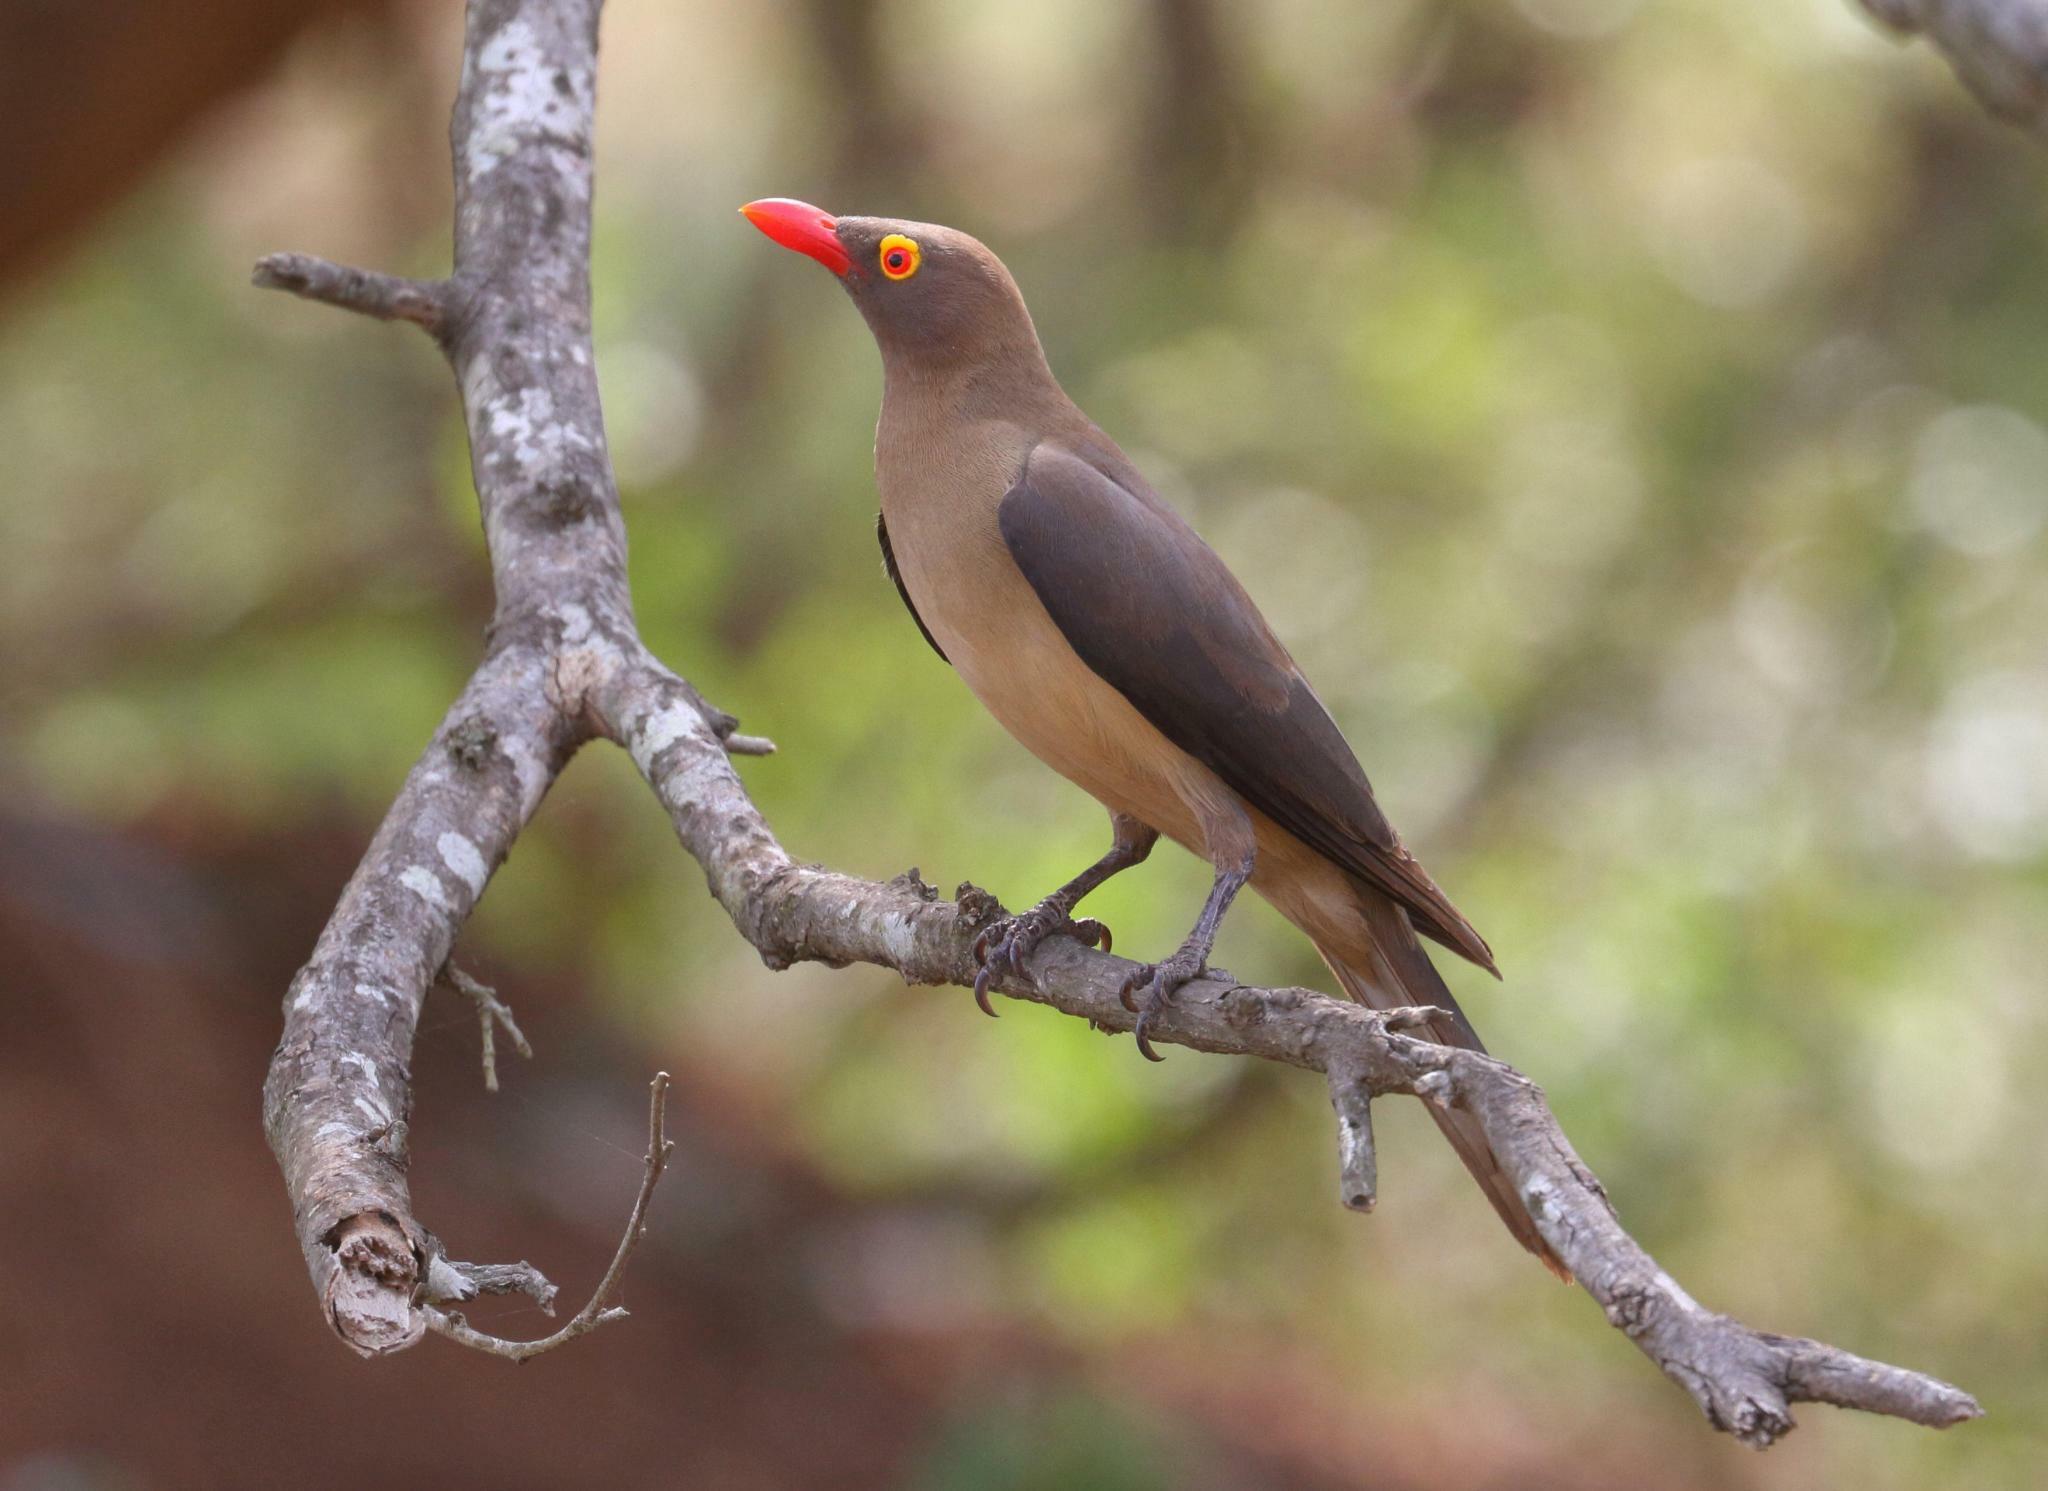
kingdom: Animalia
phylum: Chordata
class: Aves
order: Passeriformes
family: Buphagidae
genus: Buphagus
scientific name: Buphagus erythrorhynchus
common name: Red-billed oxpecker
